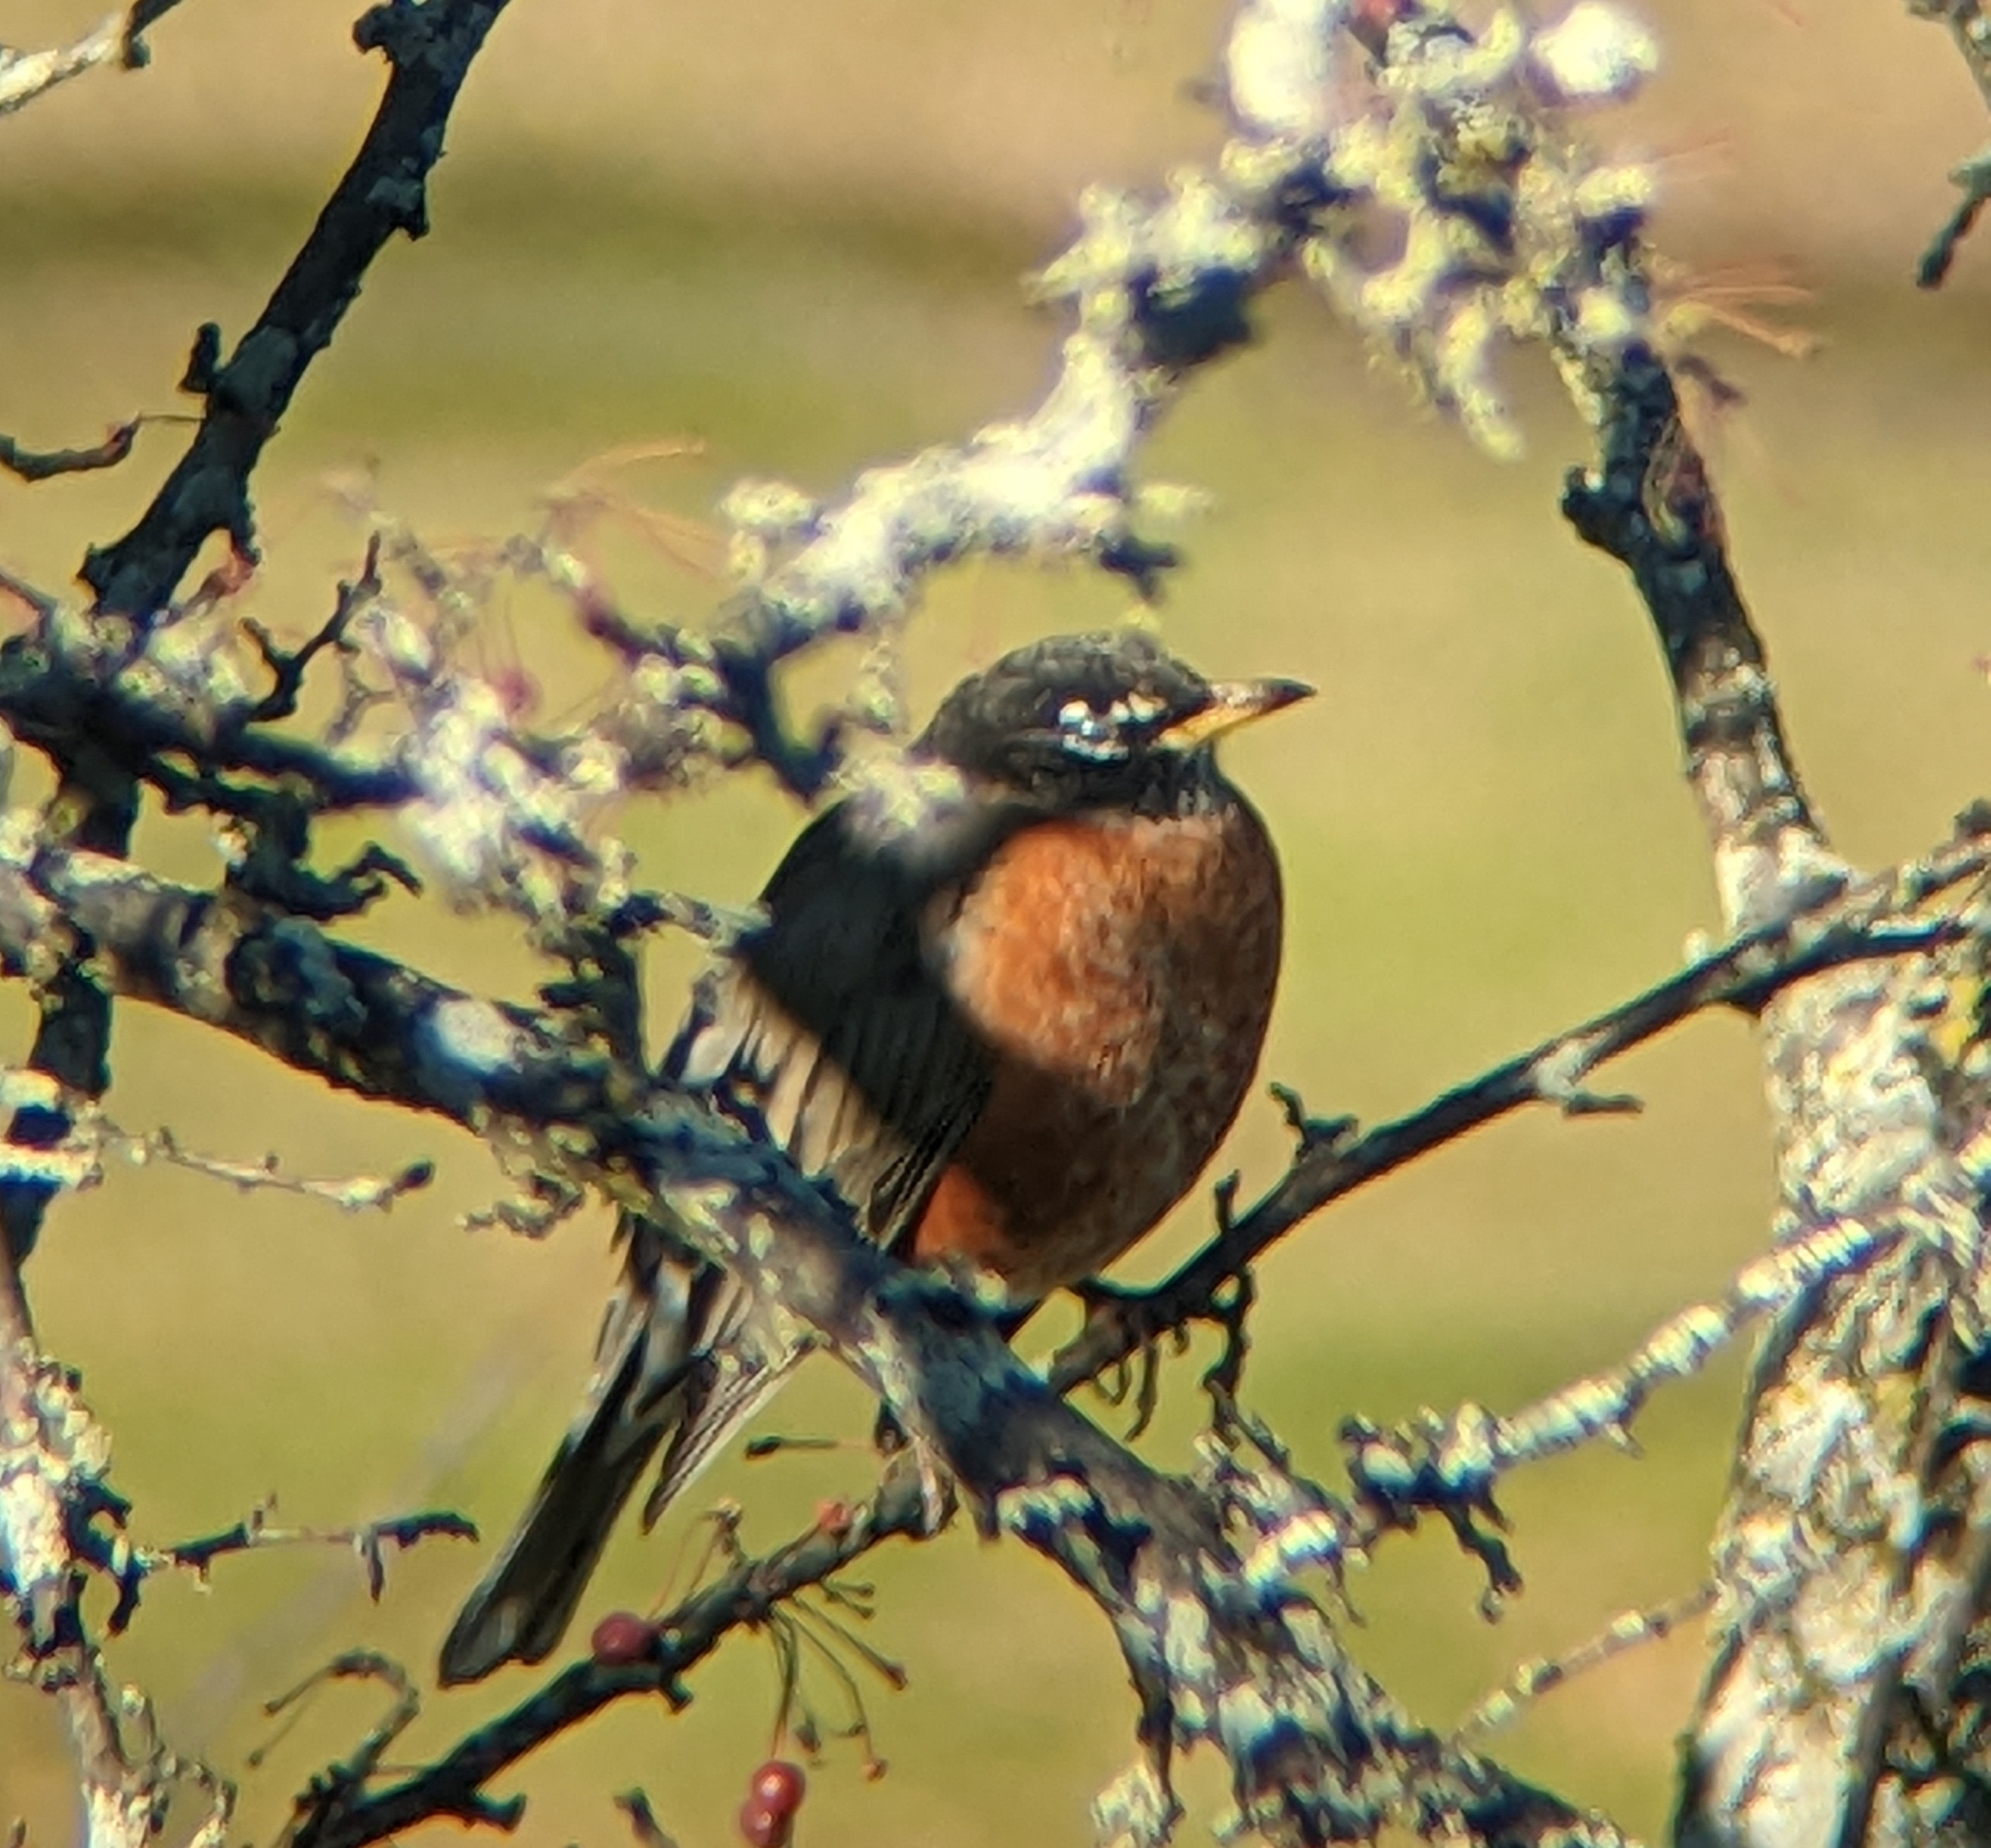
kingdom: Animalia
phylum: Chordata
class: Aves
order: Passeriformes
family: Turdidae
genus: Turdus
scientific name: Turdus migratorius
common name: American robin
